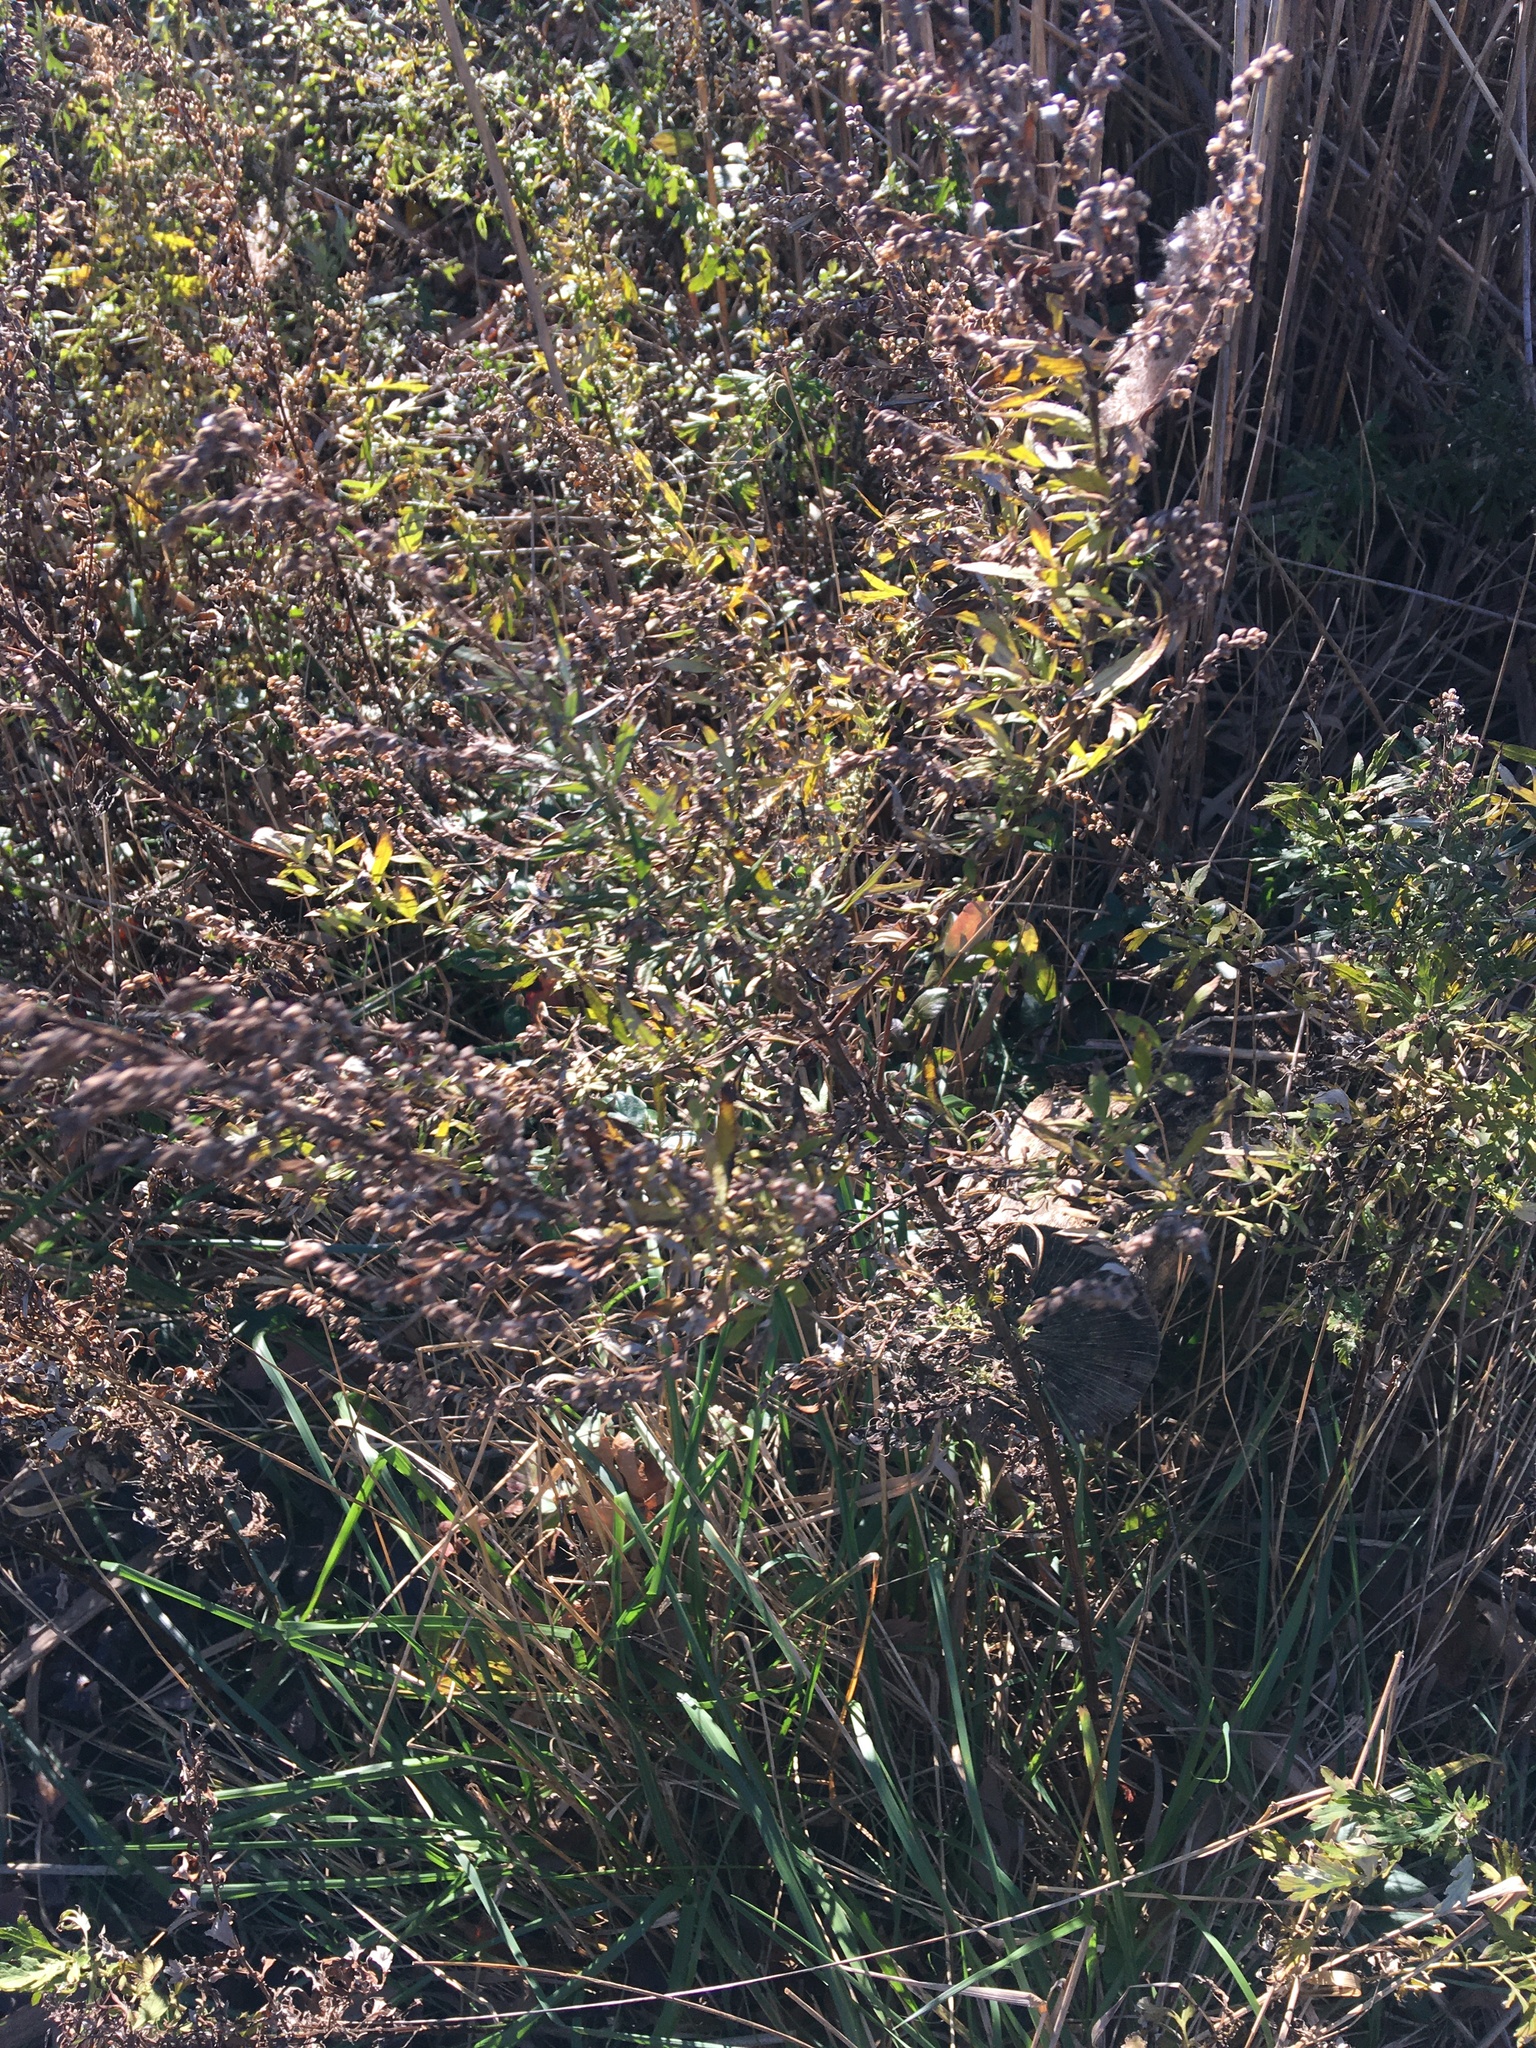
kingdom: Plantae
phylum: Tracheophyta
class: Magnoliopsida
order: Asterales
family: Asteraceae
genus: Artemisia
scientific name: Artemisia vulgaris
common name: Mugwort
